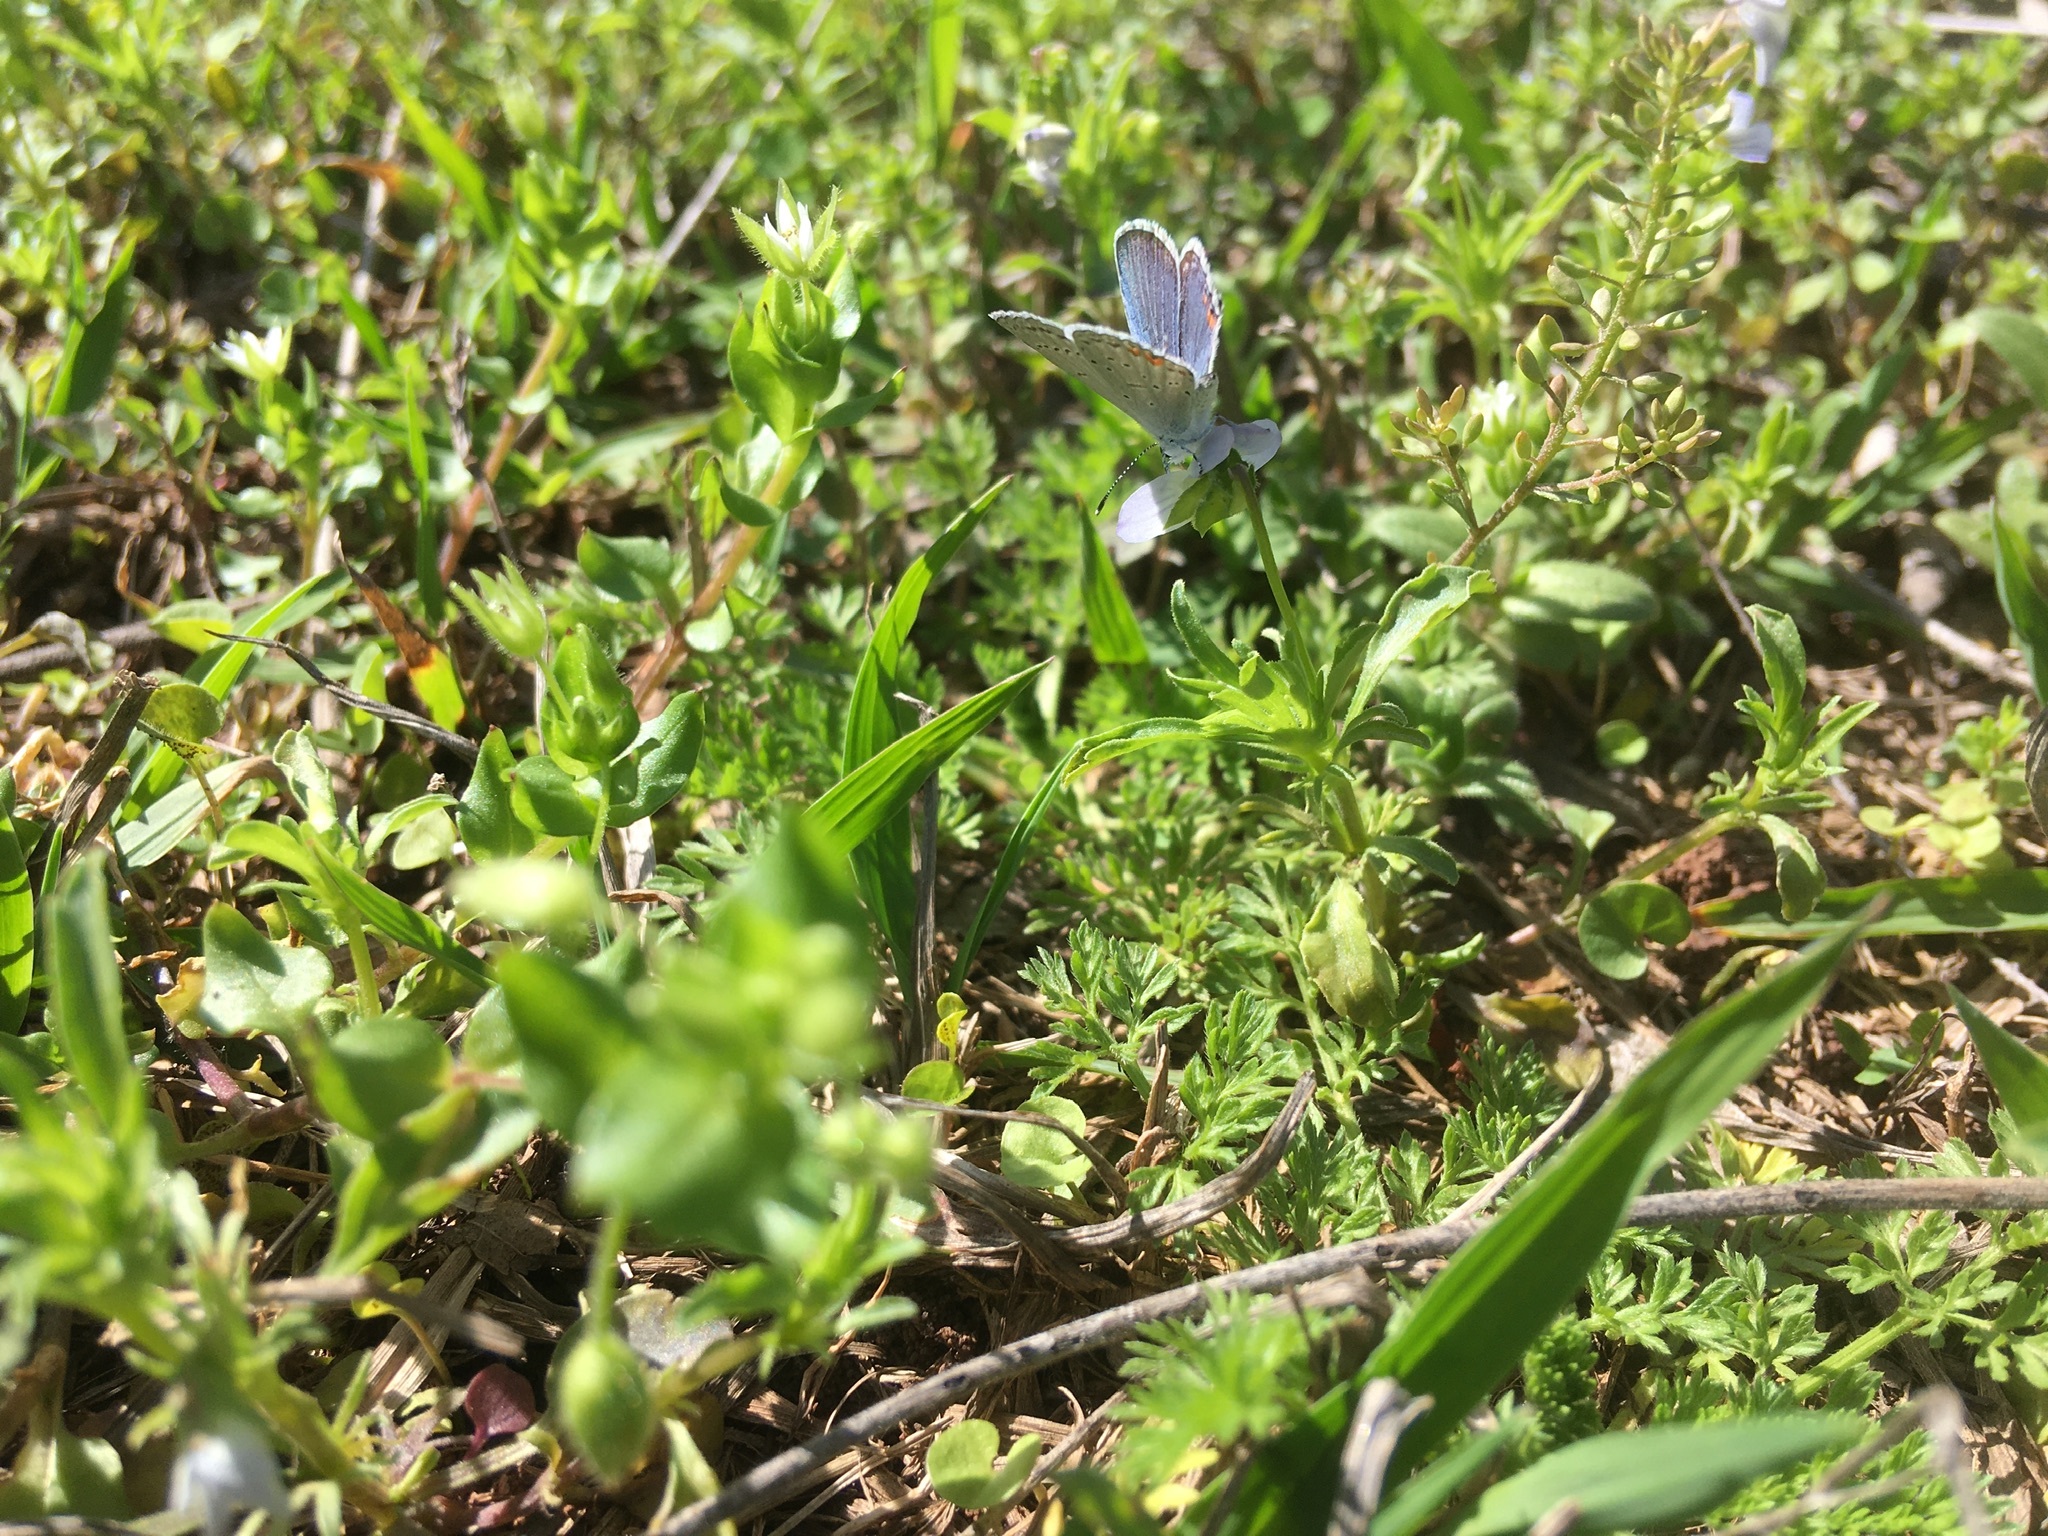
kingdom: Animalia
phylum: Arthropoda
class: Insecta
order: Lepidoptera
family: Lycaenidae
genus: Elkalyce
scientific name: Elkalyce comyntas
